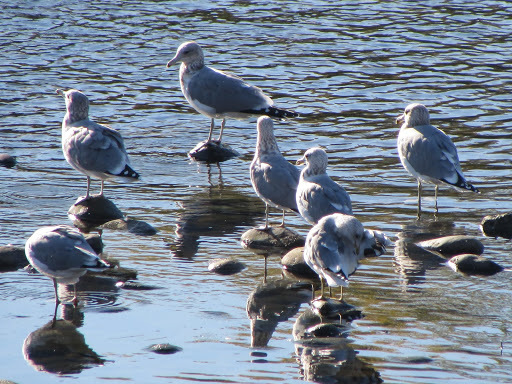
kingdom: Animalia
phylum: Chordata
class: Aves
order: Charadriiformes
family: Laridae
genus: Larus
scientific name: Larus californicus
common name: California gull
